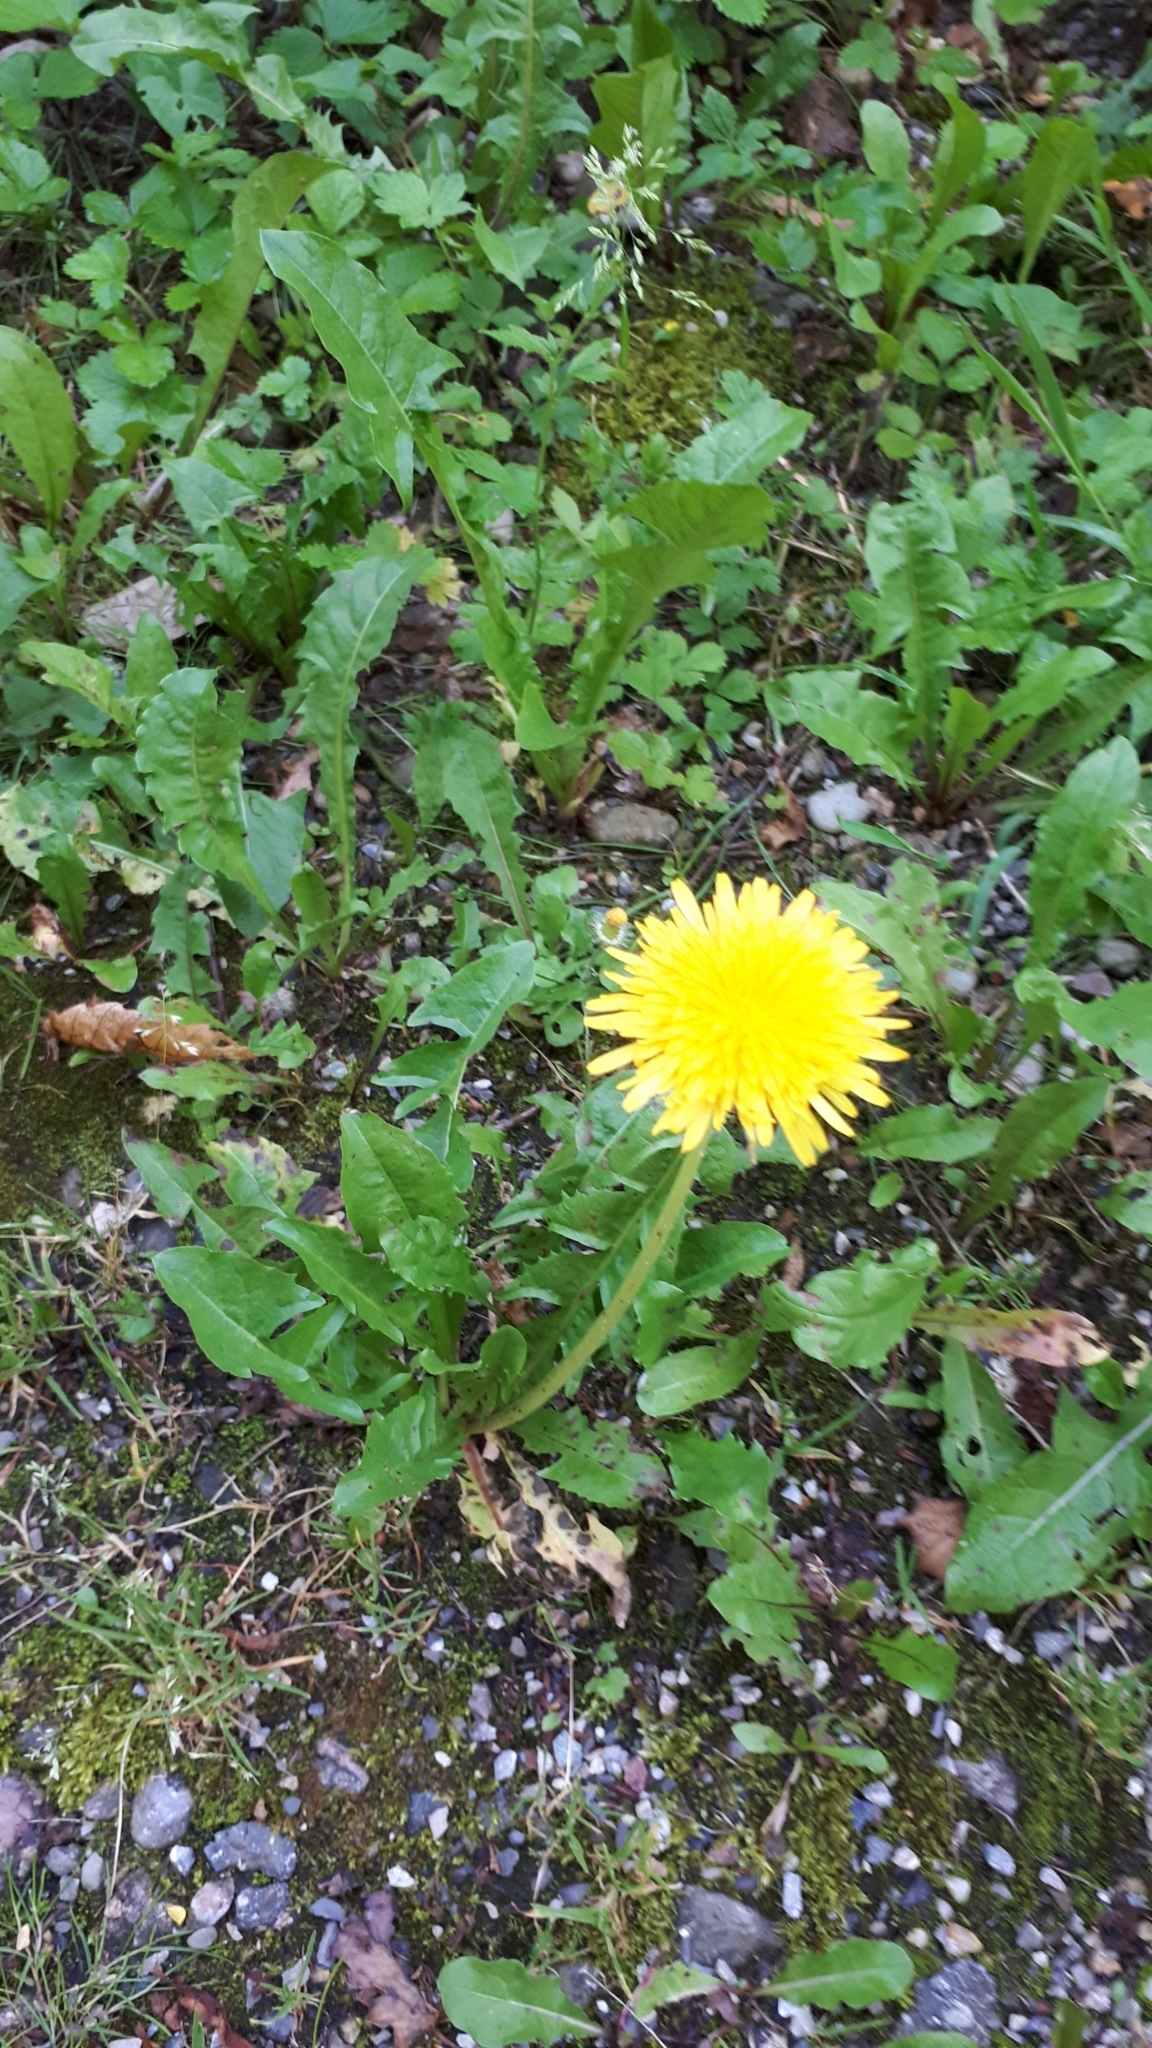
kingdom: Plantae
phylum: Tracheophyta
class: Magnoliopsida
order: Asterales
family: Asteraceae
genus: Taraxacum
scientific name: Taraxacum officinale
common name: Common dandelion
